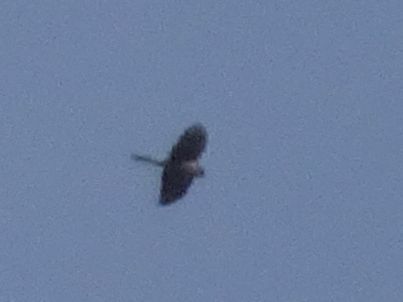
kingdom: Animalia
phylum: Chordata
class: Aves
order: Accipitriformes
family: Accipitridae
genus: Accipiter
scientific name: Accipiter nisus
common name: Eurasian sparrowhawk
